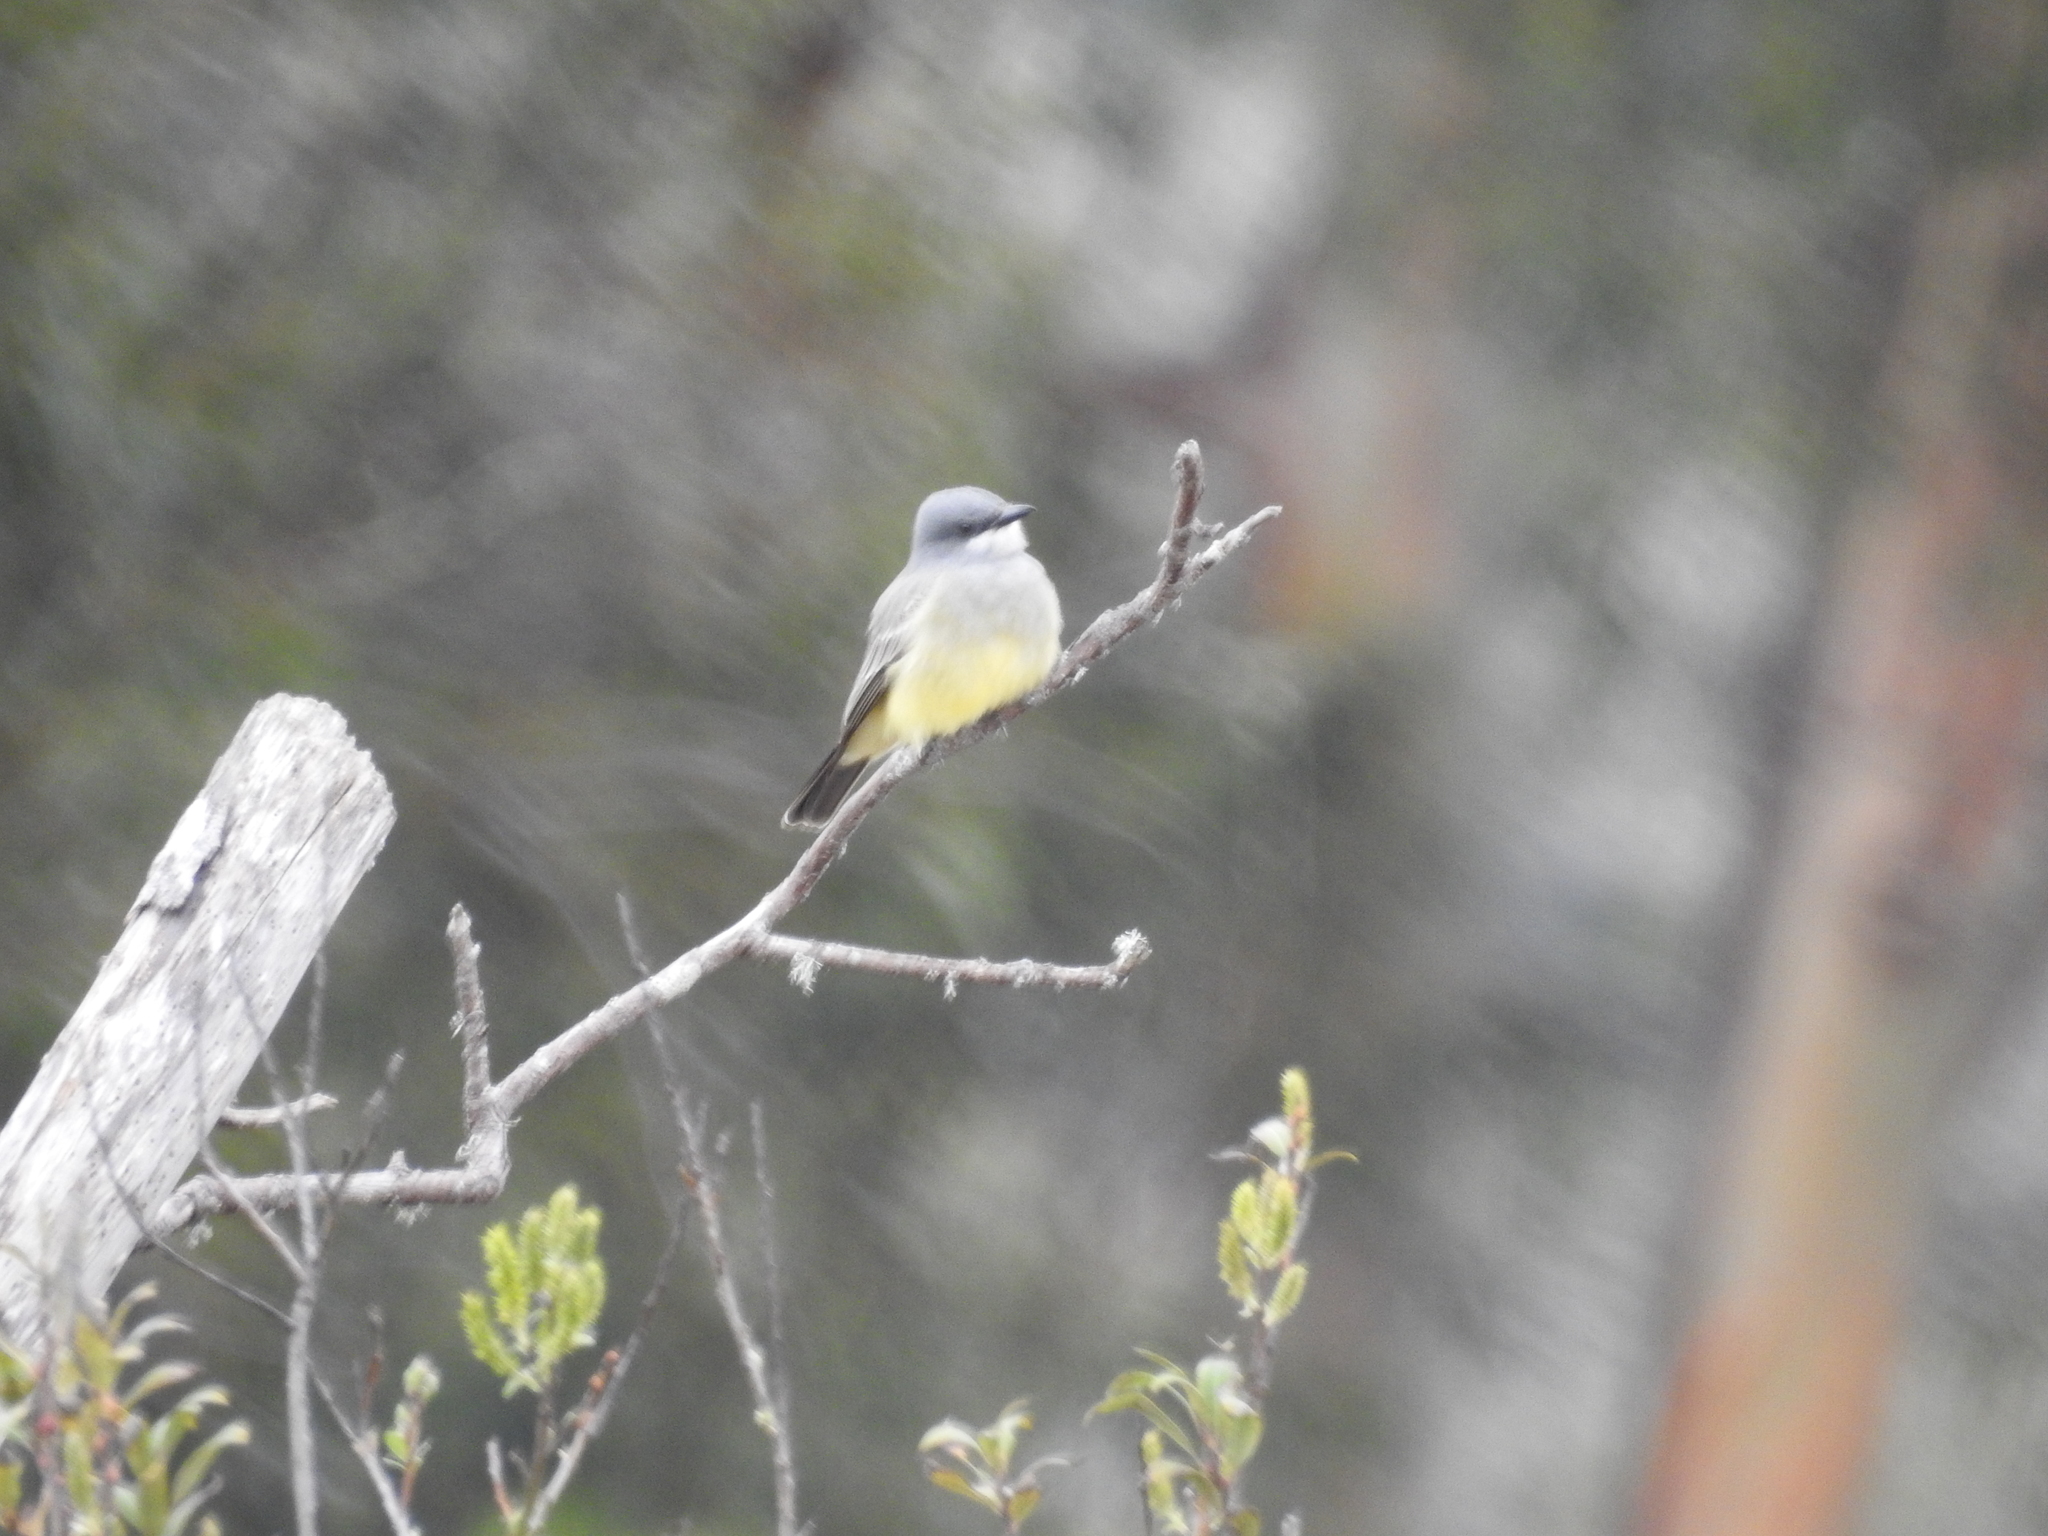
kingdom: Animalia
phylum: Chordata
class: Aves
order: Passeriformes
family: Tyrannidae
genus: Tyrannus
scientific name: Tyrannus vociferans
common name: Cassin's kingbird
